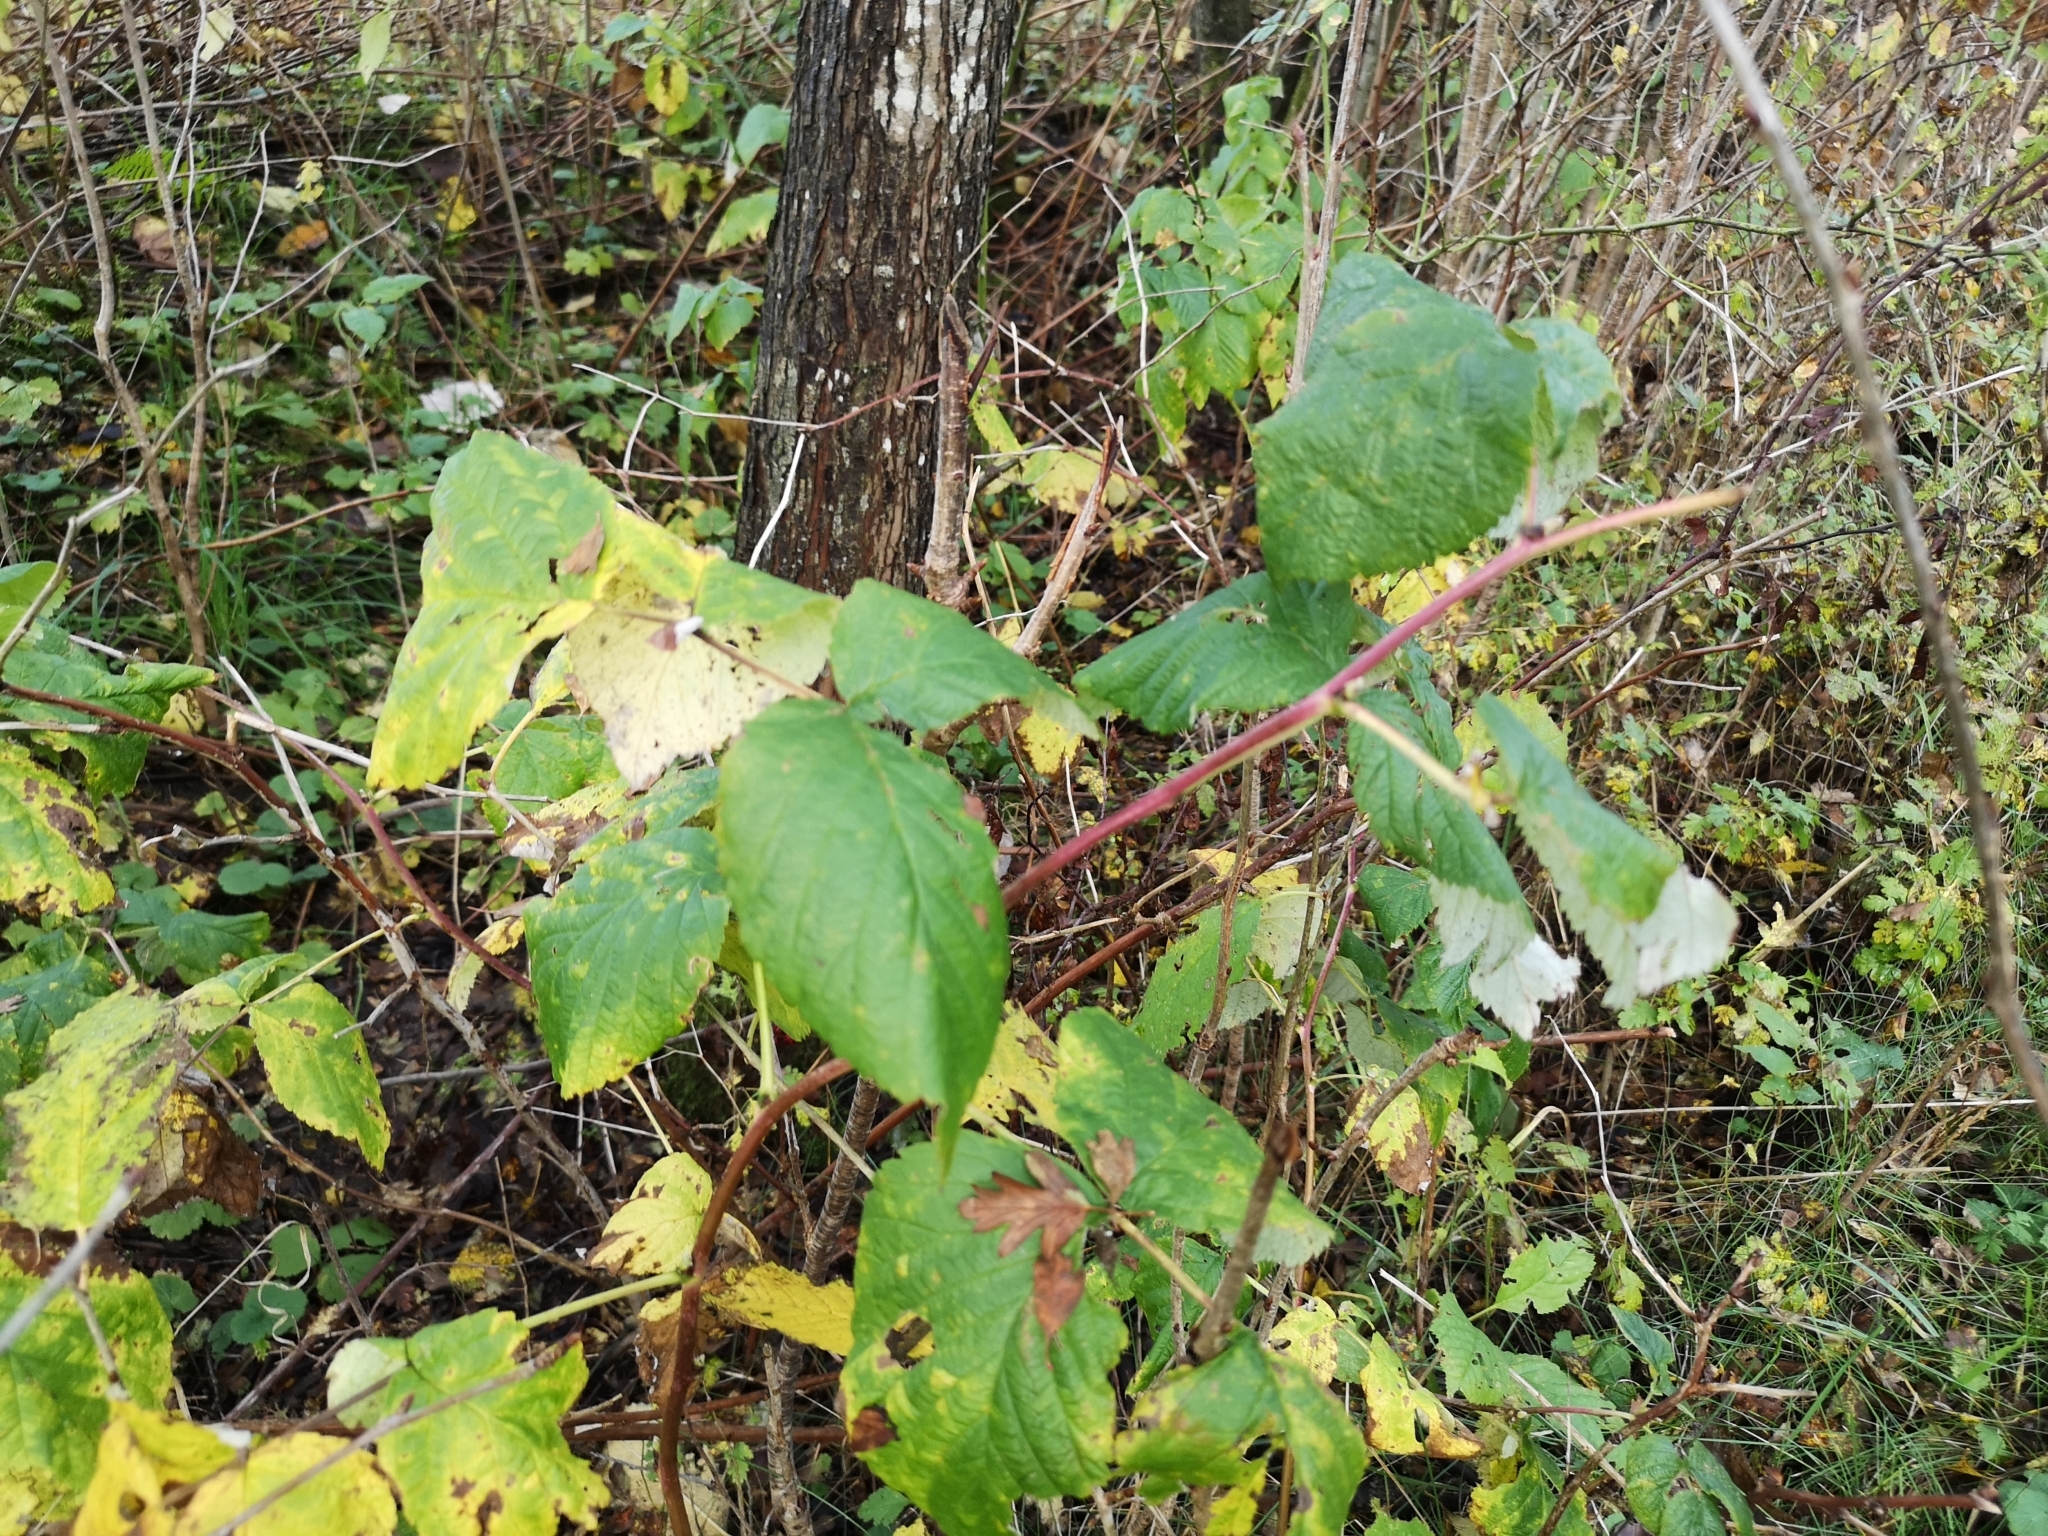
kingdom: Plantae
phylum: Tracheophyta
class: Magnoliopsida
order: Rosales
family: Rosaceae
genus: Rubus
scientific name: Rubus idaeus
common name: Raspberry
